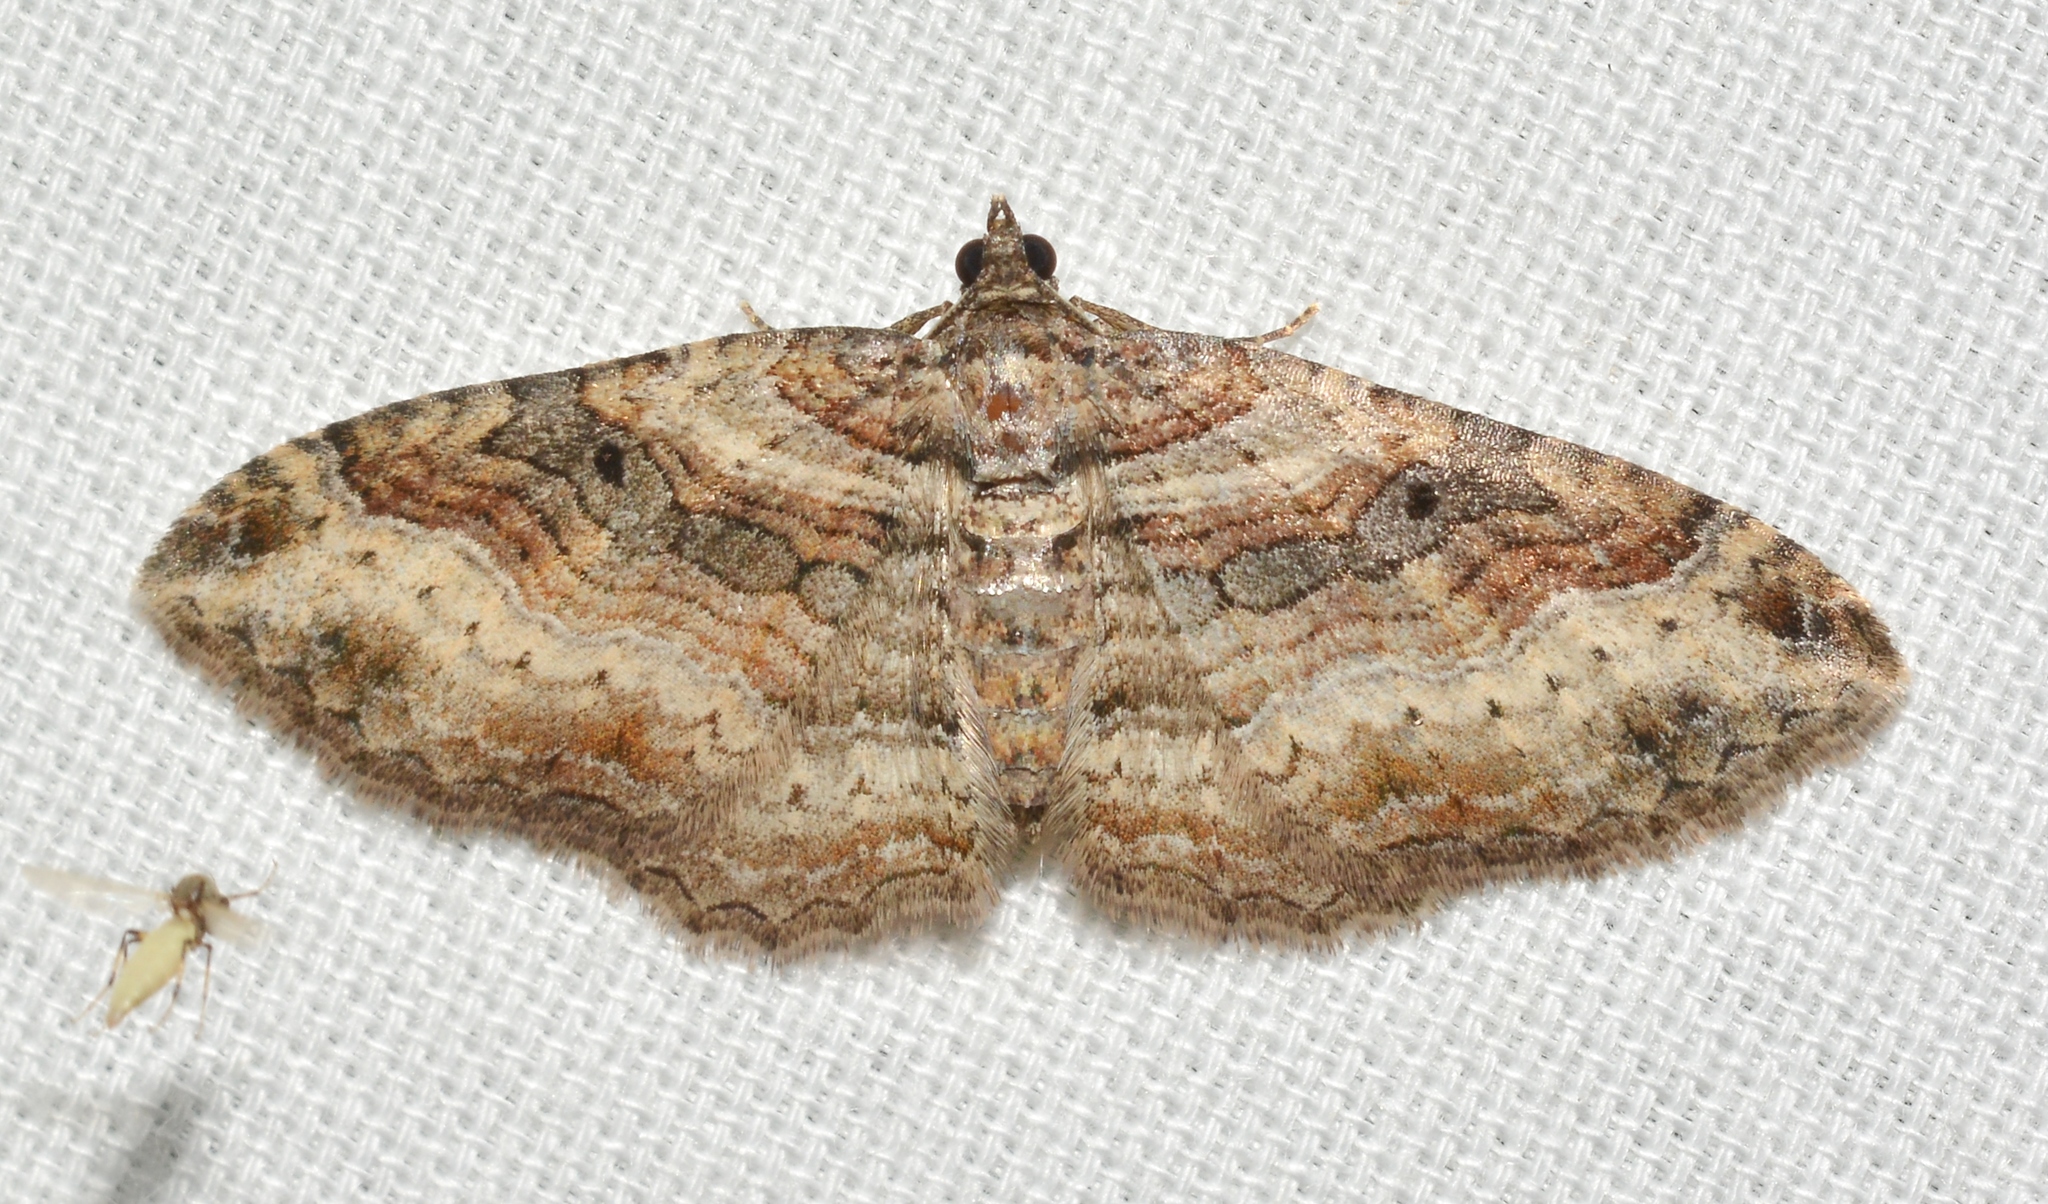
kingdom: Animalia
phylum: Arthropoda
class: Insecta
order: Lepidoptera
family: Geometridae
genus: Costaconvexa
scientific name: Costaconvexa centrostrigaria
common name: Bent-line carpet
